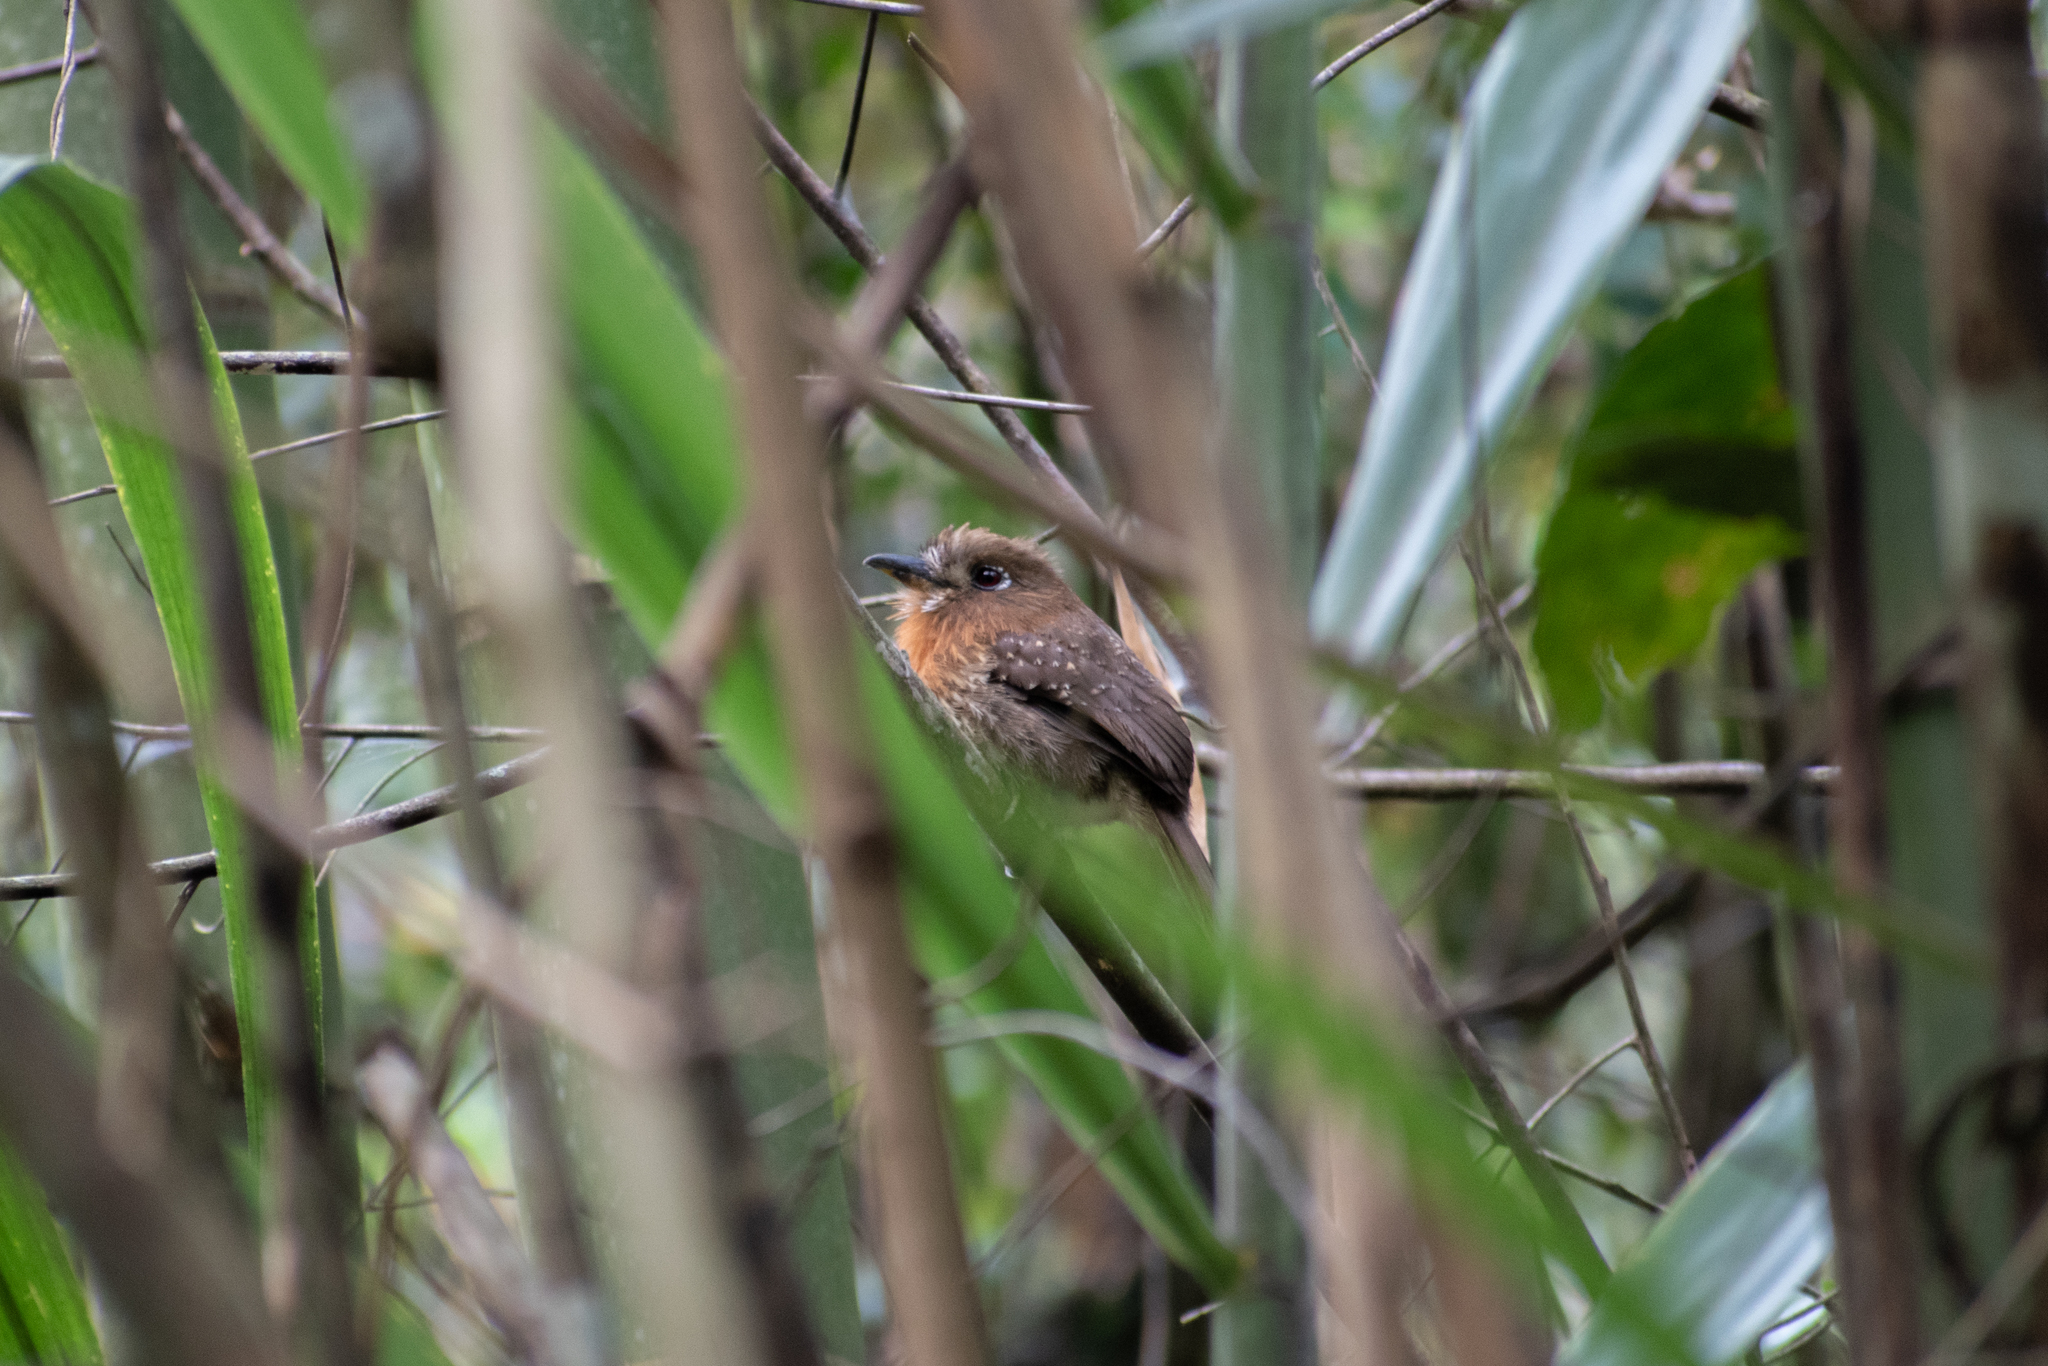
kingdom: Animalia
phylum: Chordata
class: Aves
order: Piciformes
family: Bucconidae
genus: Malacoptila
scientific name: Malacoptila panamensis
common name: White-whiskered puffbird
